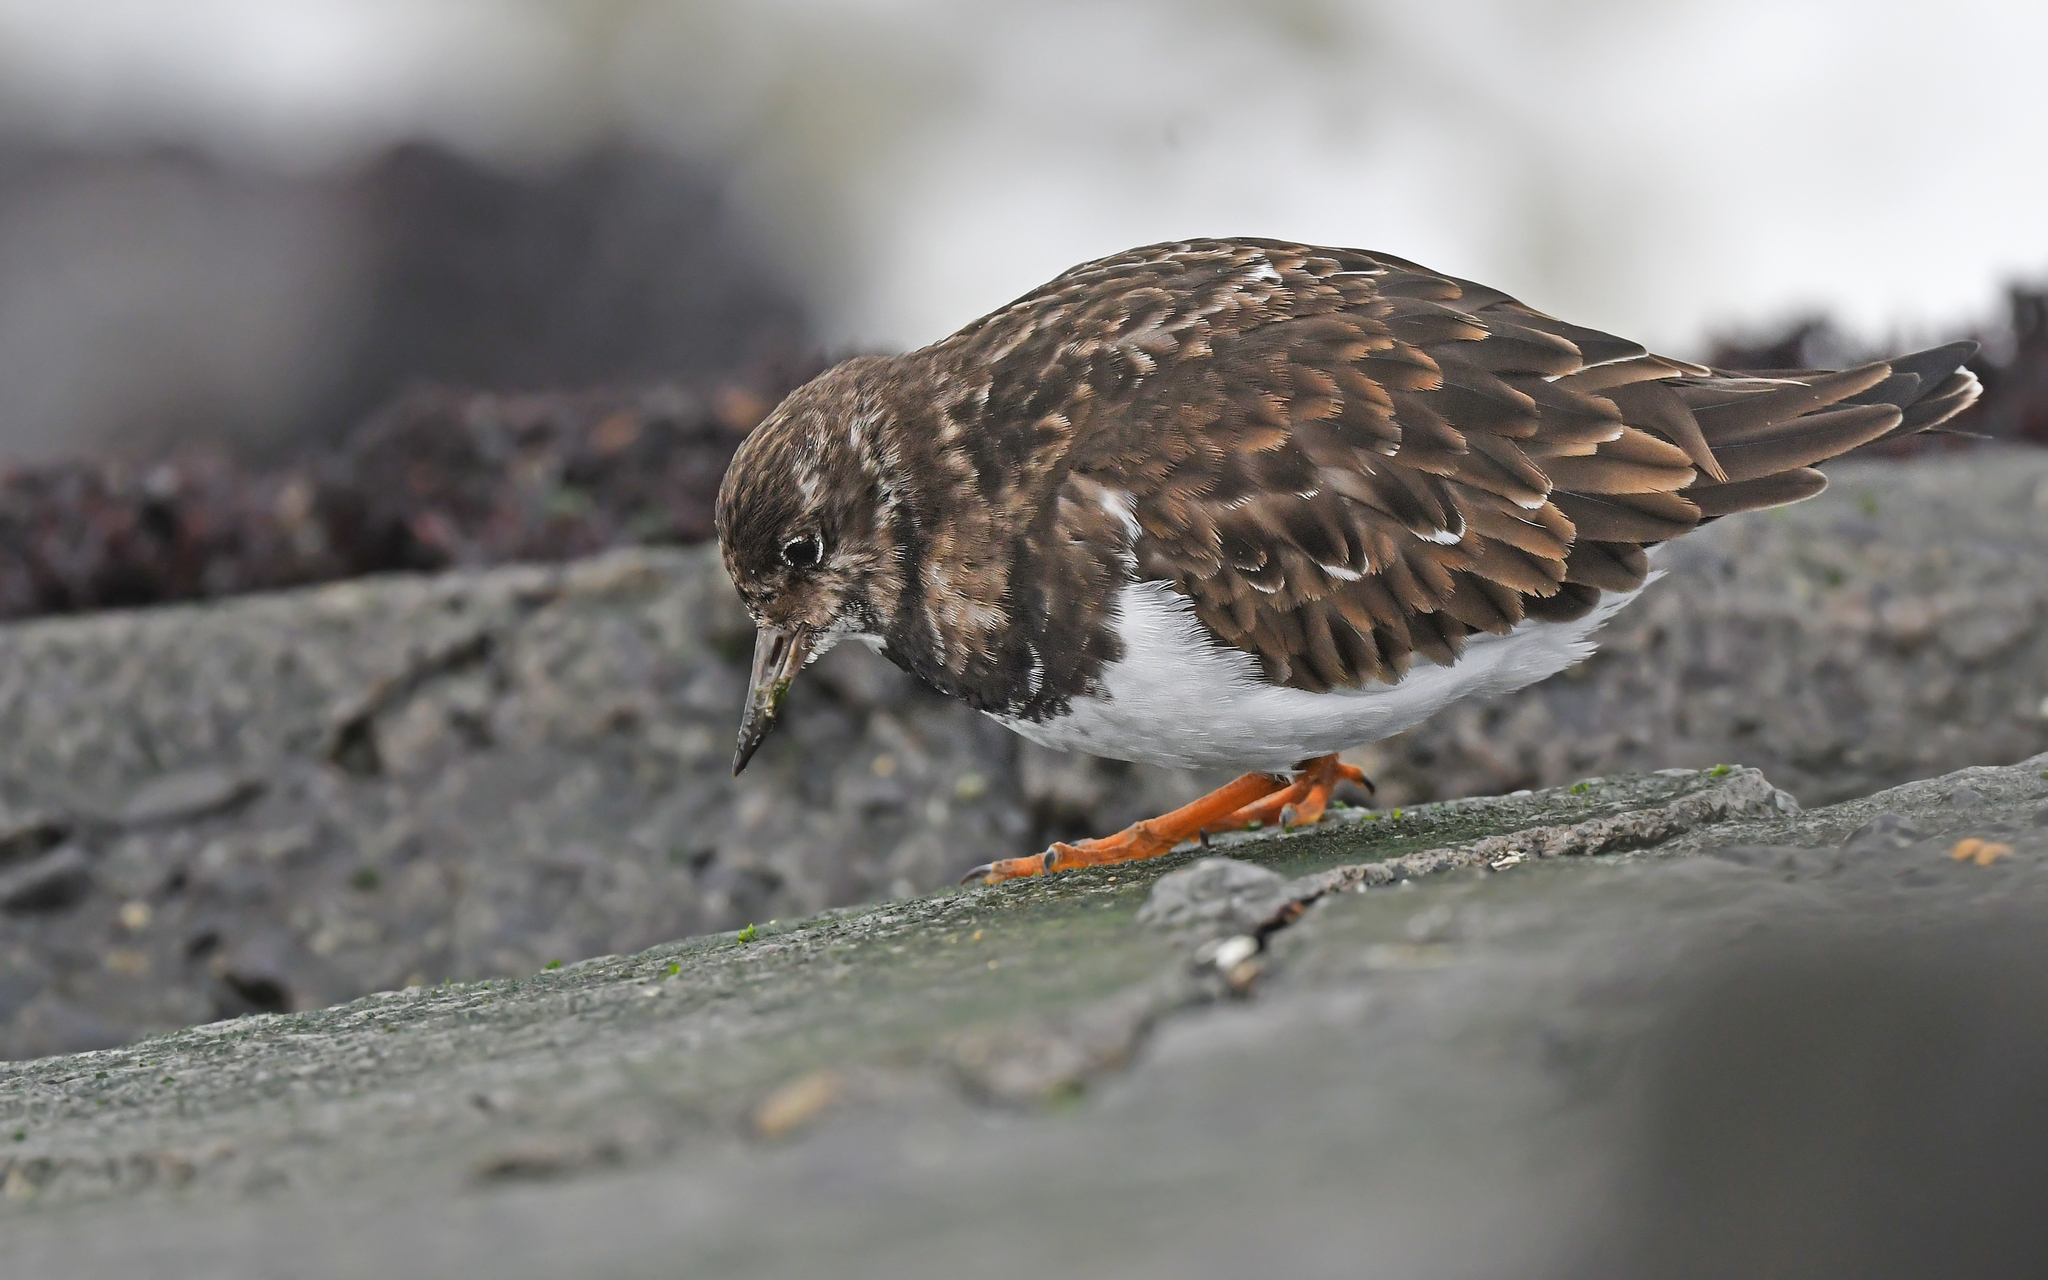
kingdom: Animalia
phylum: Chordata
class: Aves
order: Charadriiformes
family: Scolopacidae
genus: Arenaria
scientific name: Arenaria interpres
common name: Ruddy turnstone
